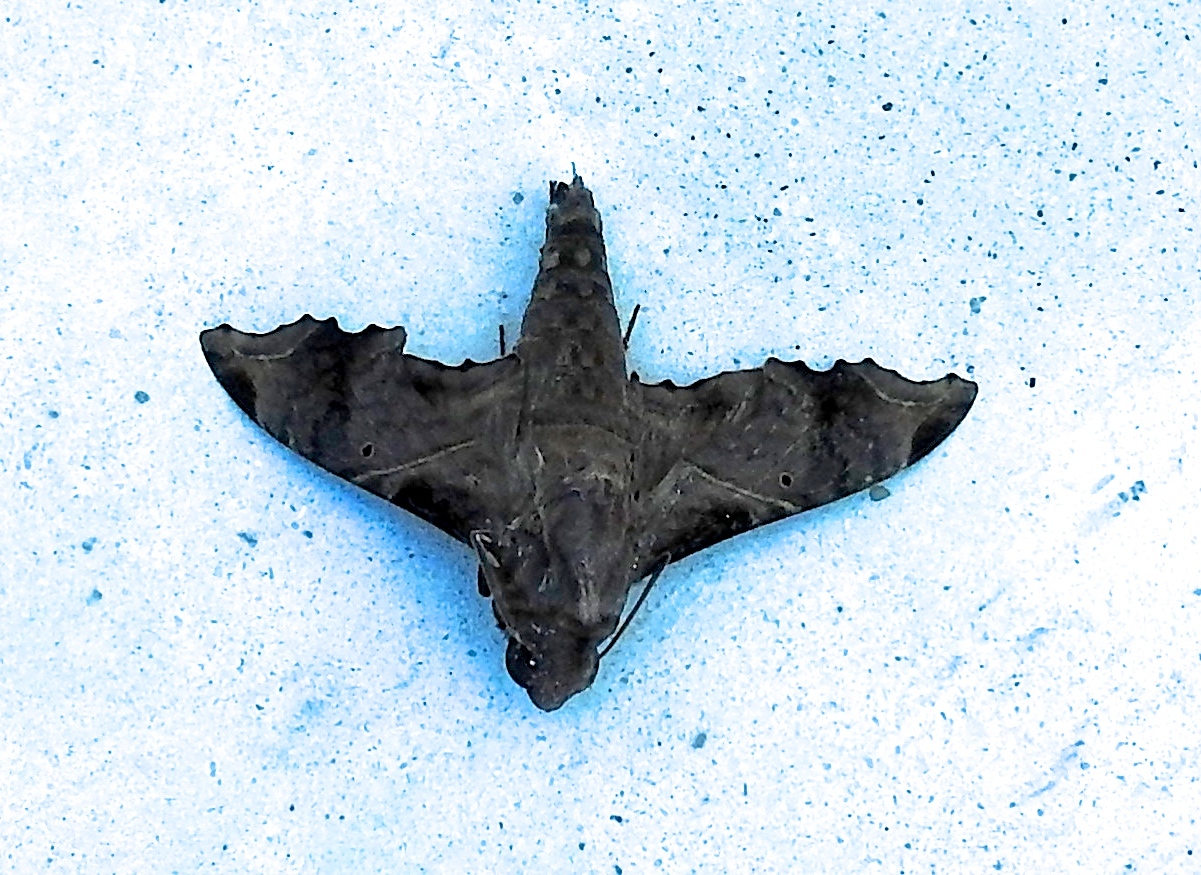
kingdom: Animalia
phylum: Arthropoda
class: Insecta
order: Lepidoptera
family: Sphingidae
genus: Enyo
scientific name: Enyo lugubris
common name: Mournful sphinx
